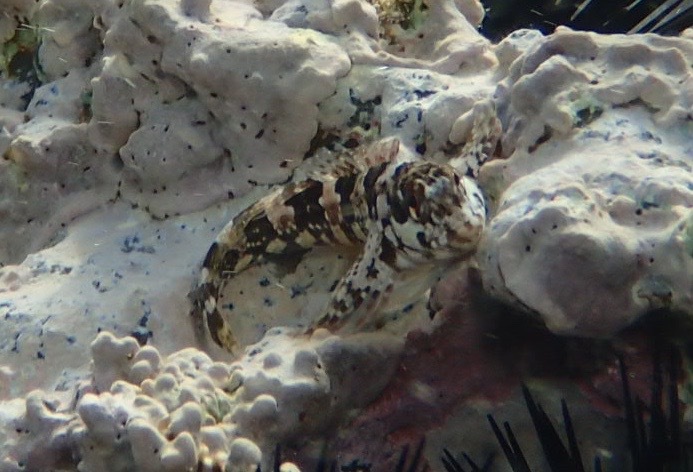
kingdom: Animalia
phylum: Chordata
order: Perciformes
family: Blenniidae
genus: Lipophrys
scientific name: Lipophrys trigloides
